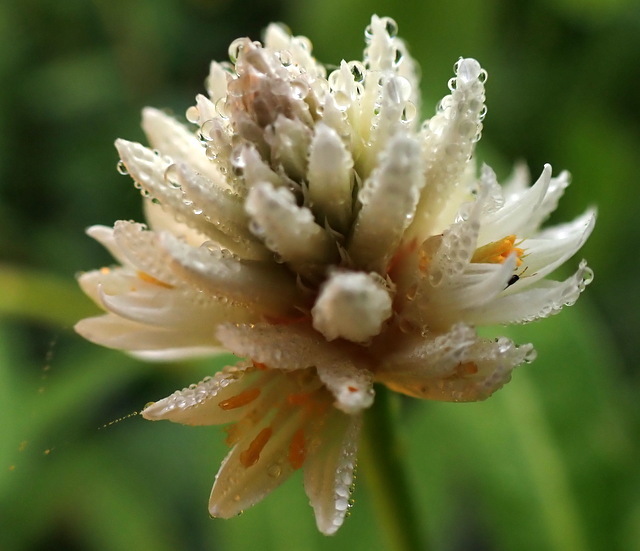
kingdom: Plantae
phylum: Tracheophyta
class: Magnoliopsida
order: Caryophyllales
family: Amaranthaceae
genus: Alternanthera
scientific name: Alternanthera philoxeroides
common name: Alligatorweed
